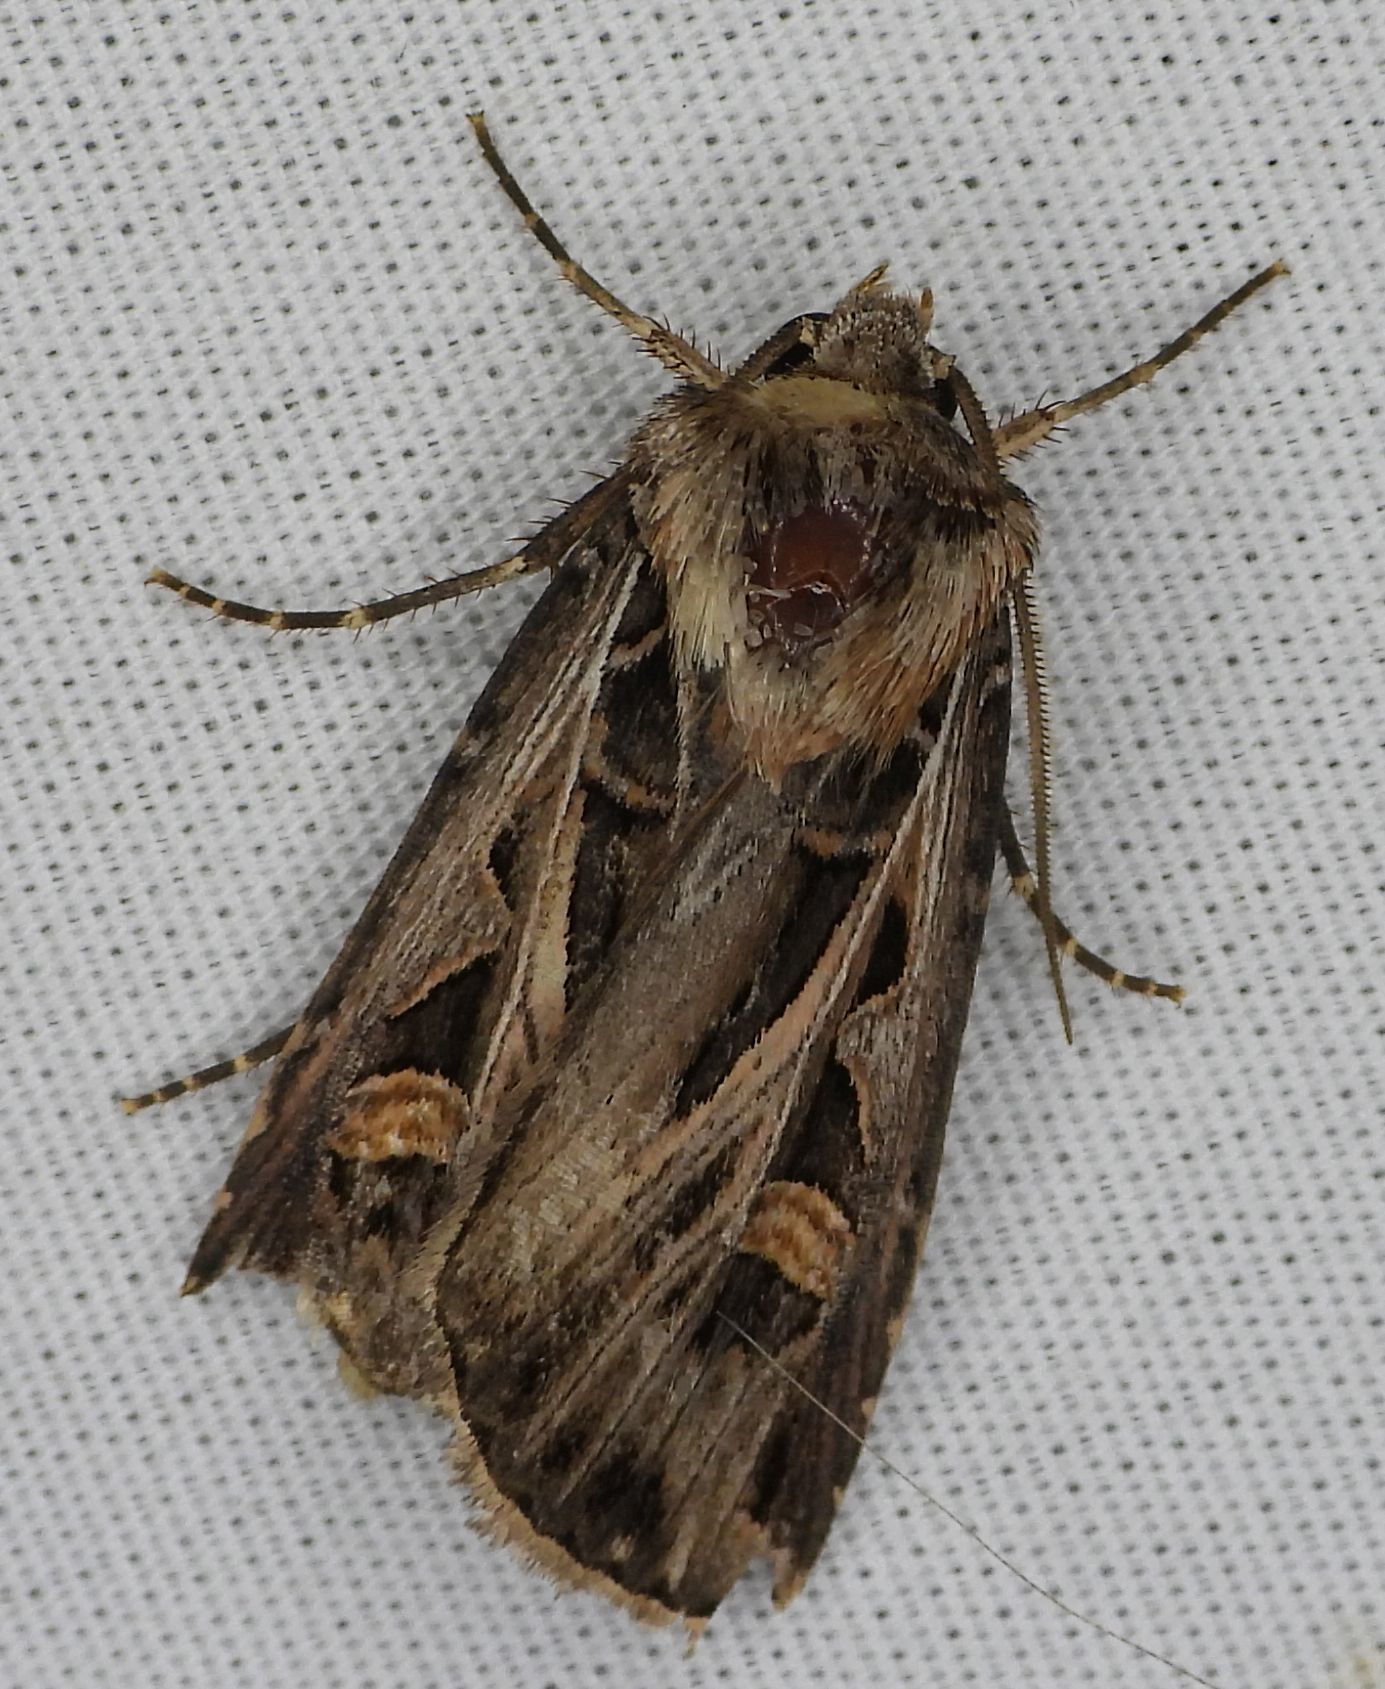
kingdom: Animalia
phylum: Arthropoda
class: Insecta
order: Lepidoptera
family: Noctuidae
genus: Feltia
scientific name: Feltia jaculifera
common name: Dingy cutworm moth
